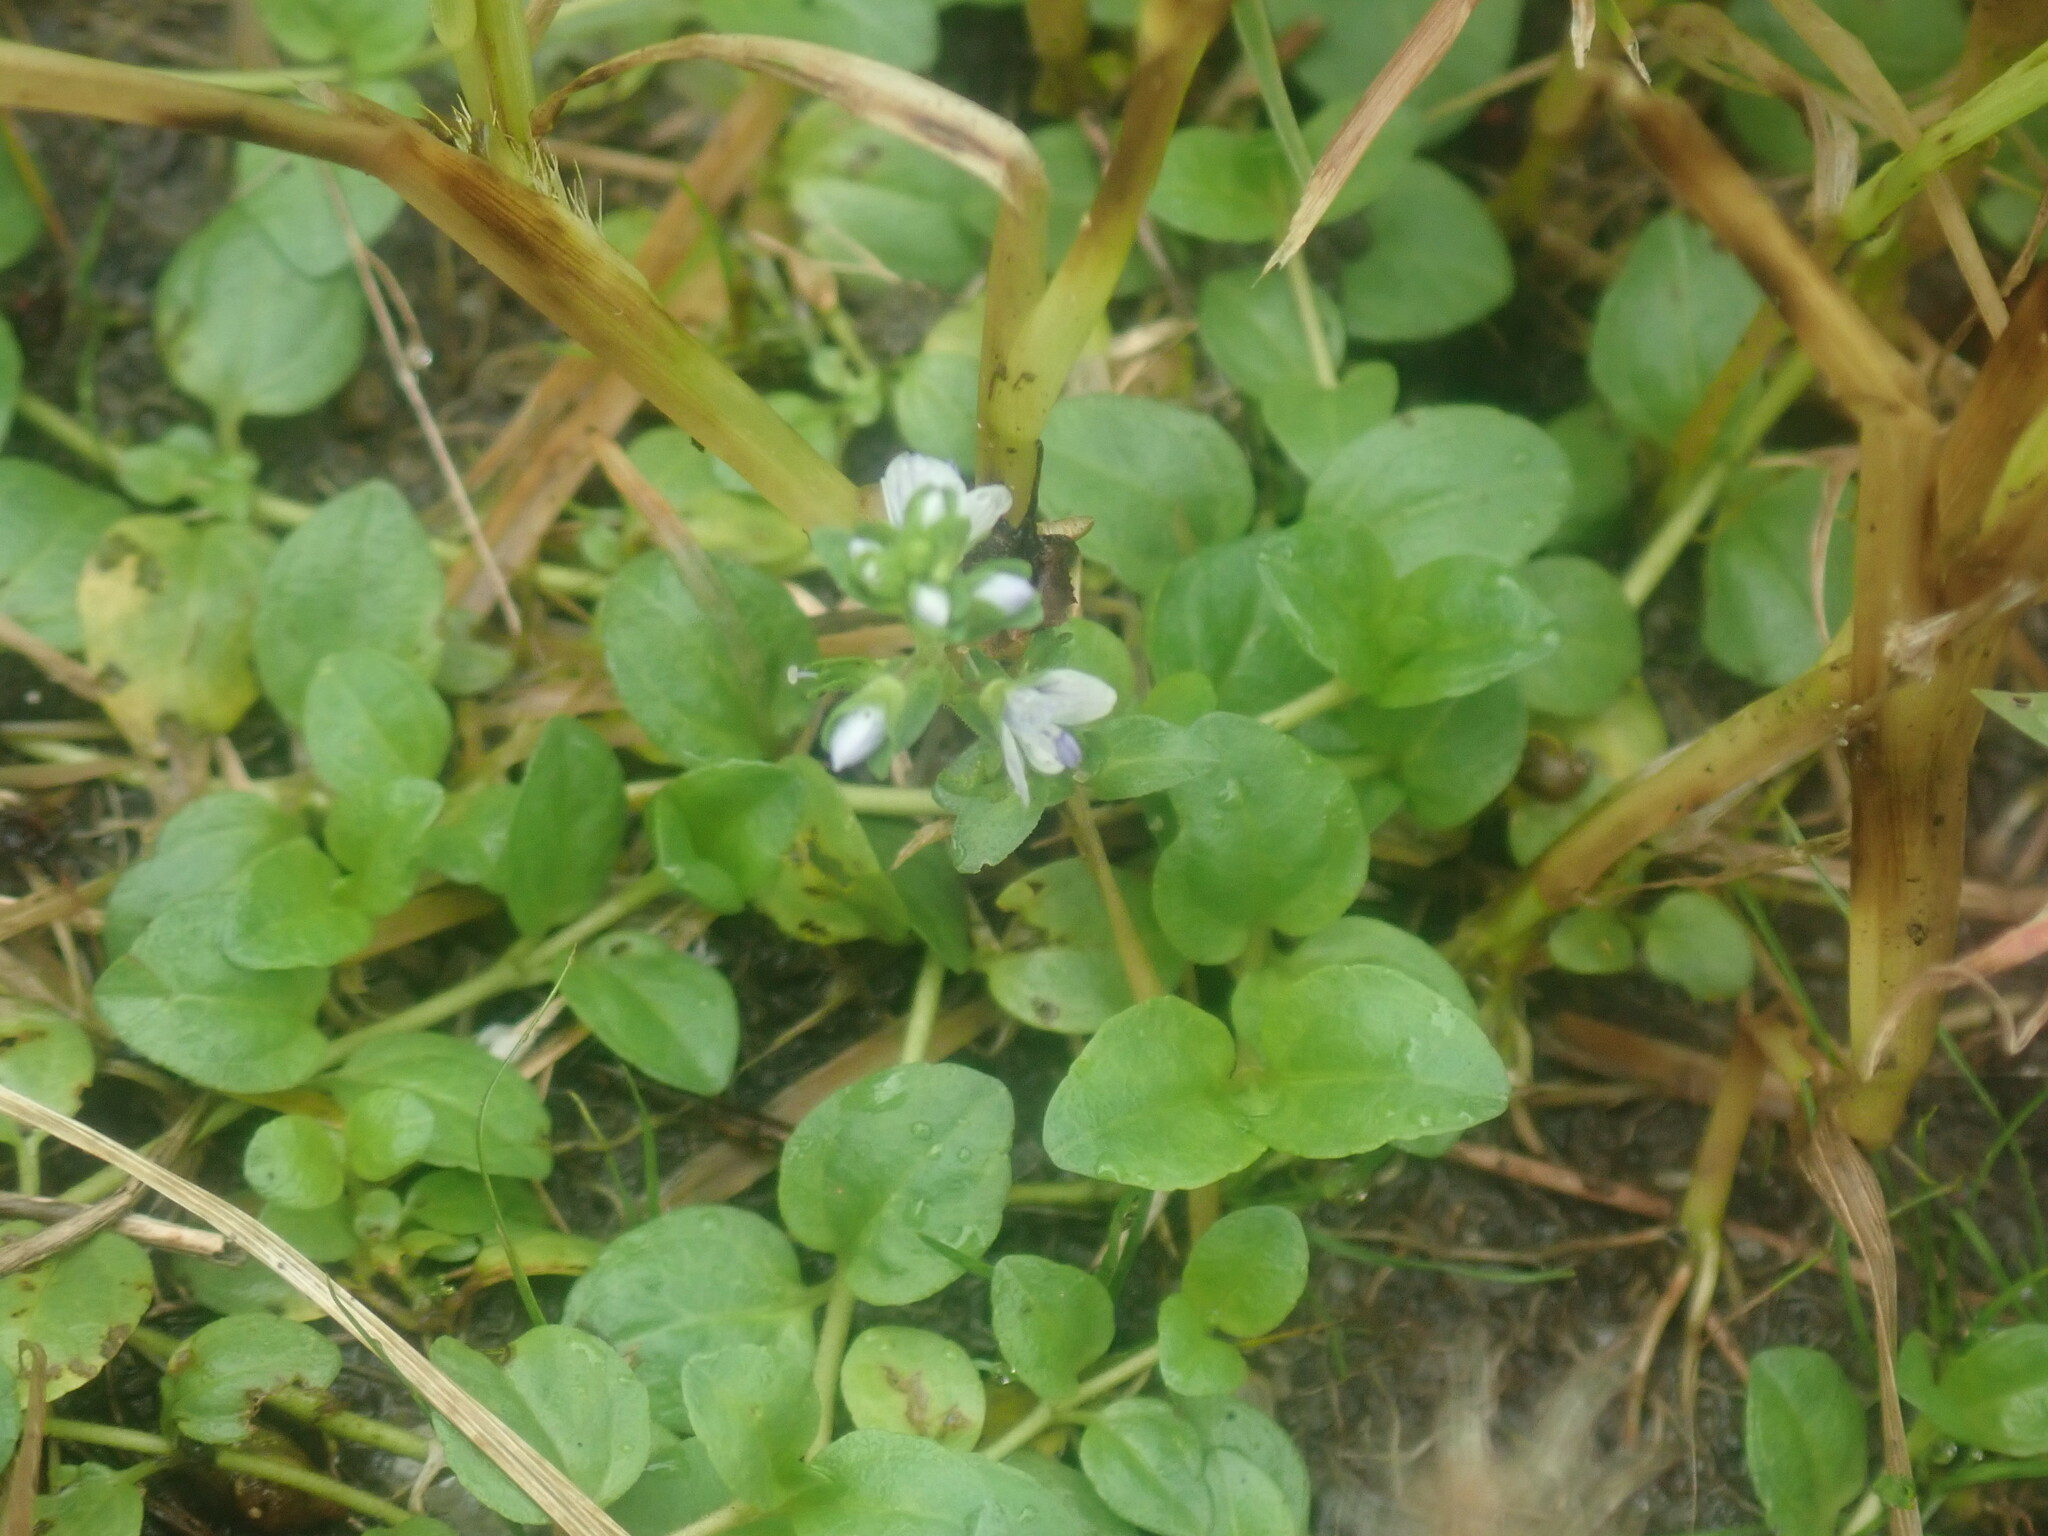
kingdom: Plantae
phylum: Tracheophyta
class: Magnoliopsida
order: Lamiales
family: Plantaginaceae
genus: Veronica
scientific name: Veronica serpyllifolia
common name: Thyme-leaved speedwell
